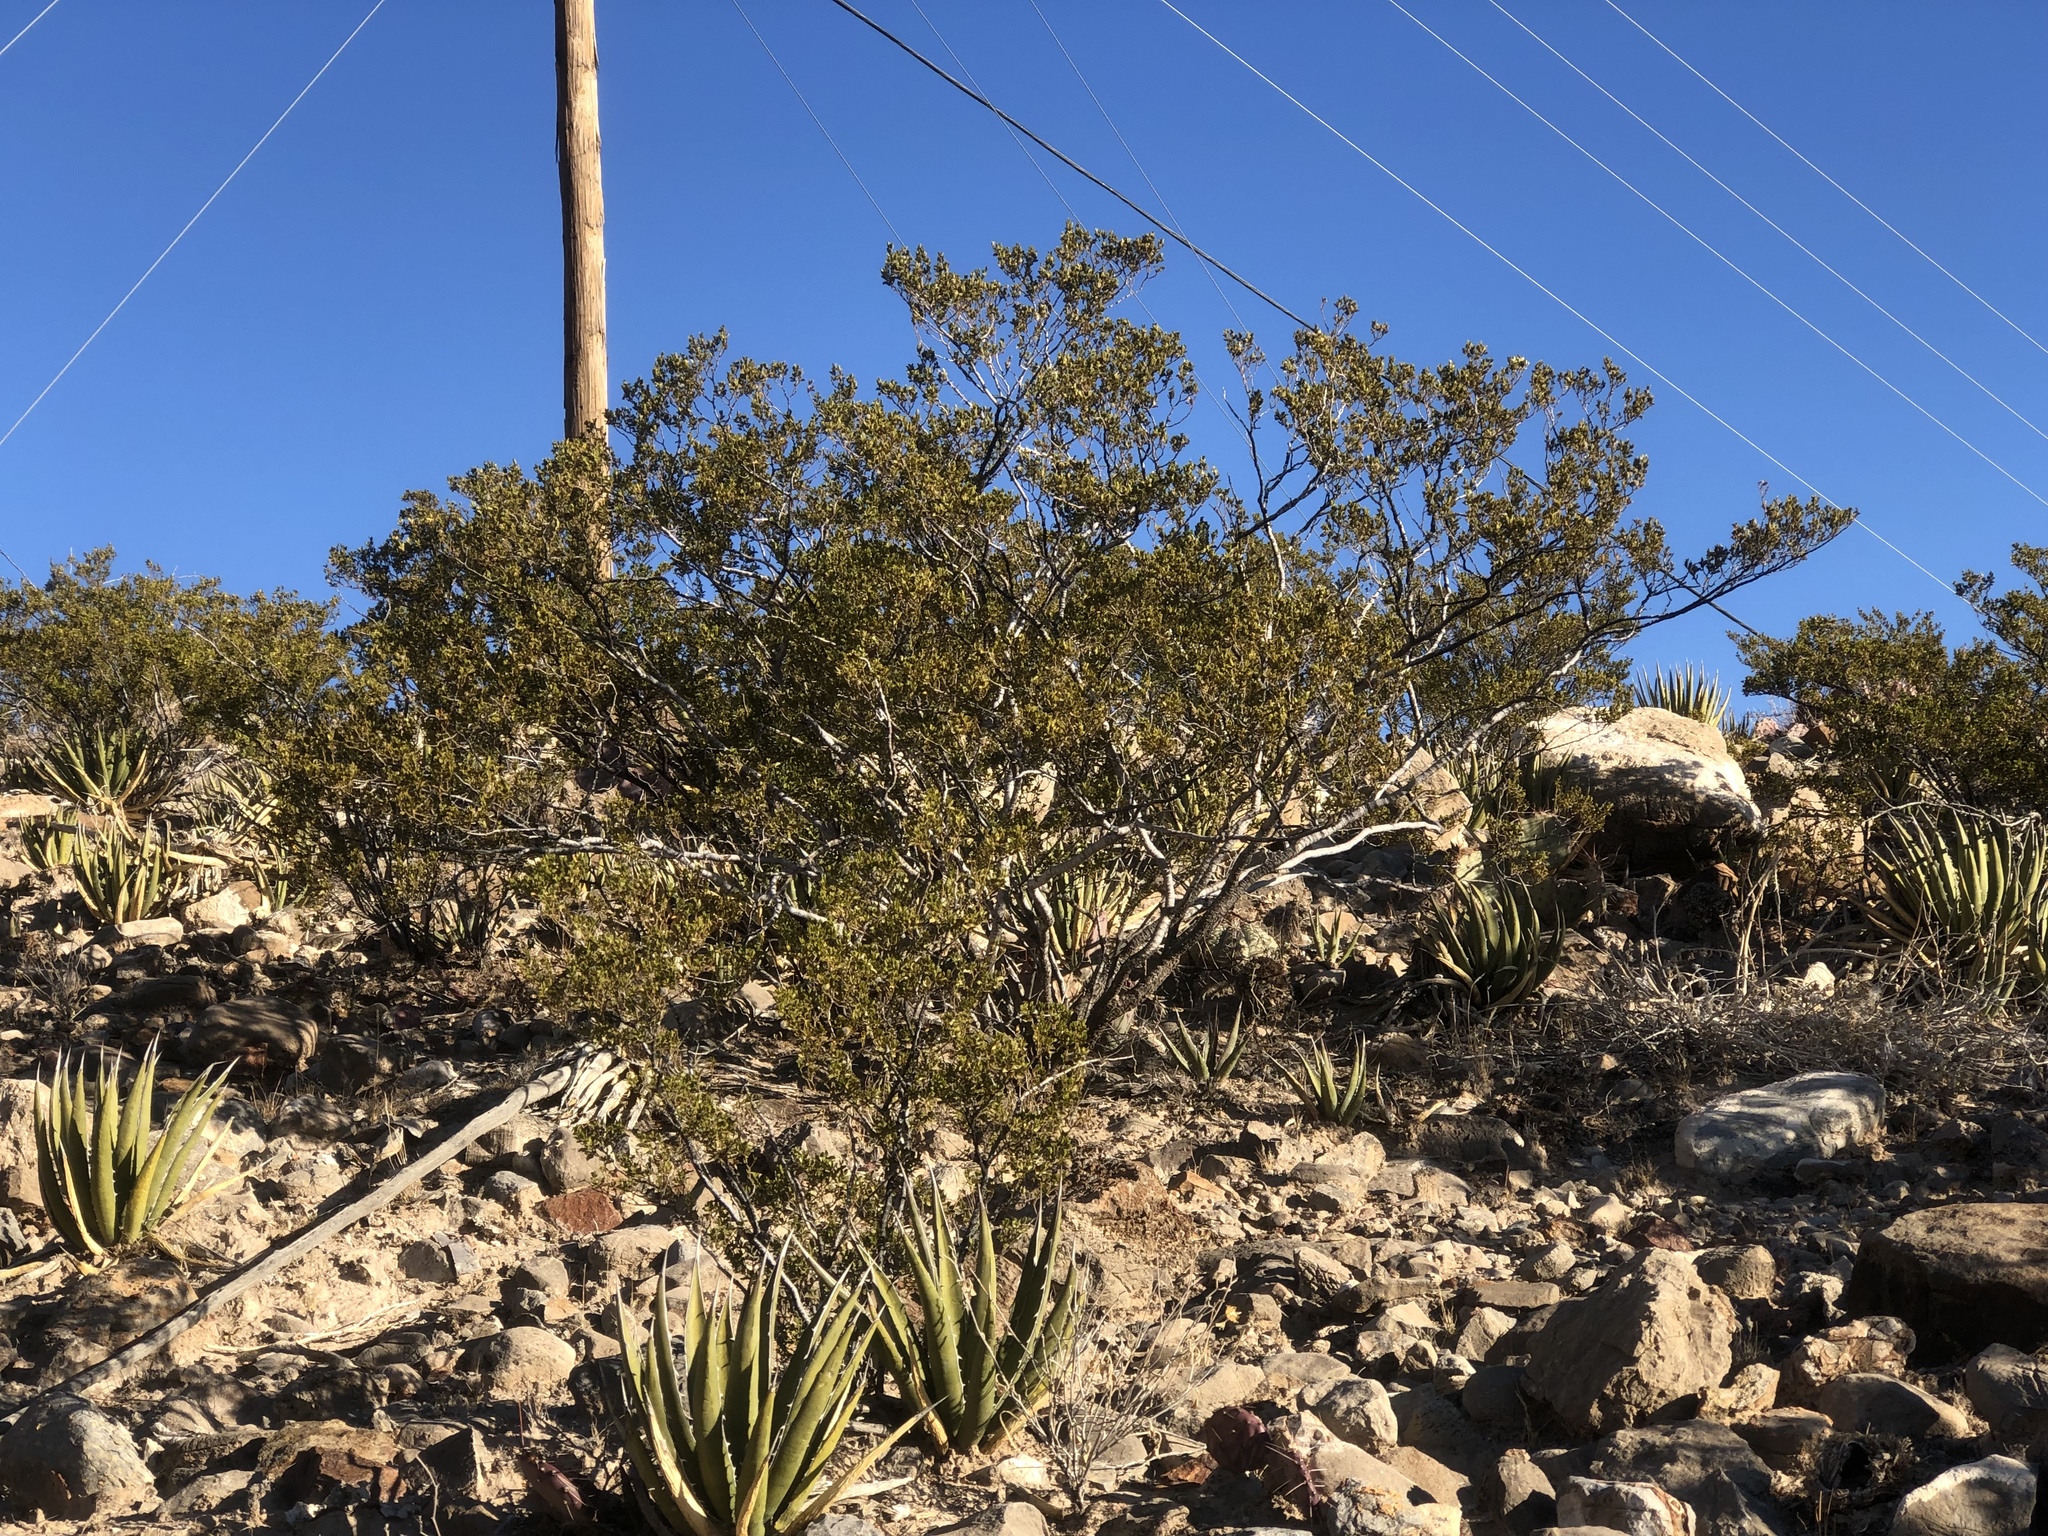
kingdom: Plantae
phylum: Tracheophyta
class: Magnoliopsida
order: Zygophyllales
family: Zygophyllaceae
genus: Larrea
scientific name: Larrea tridentata
